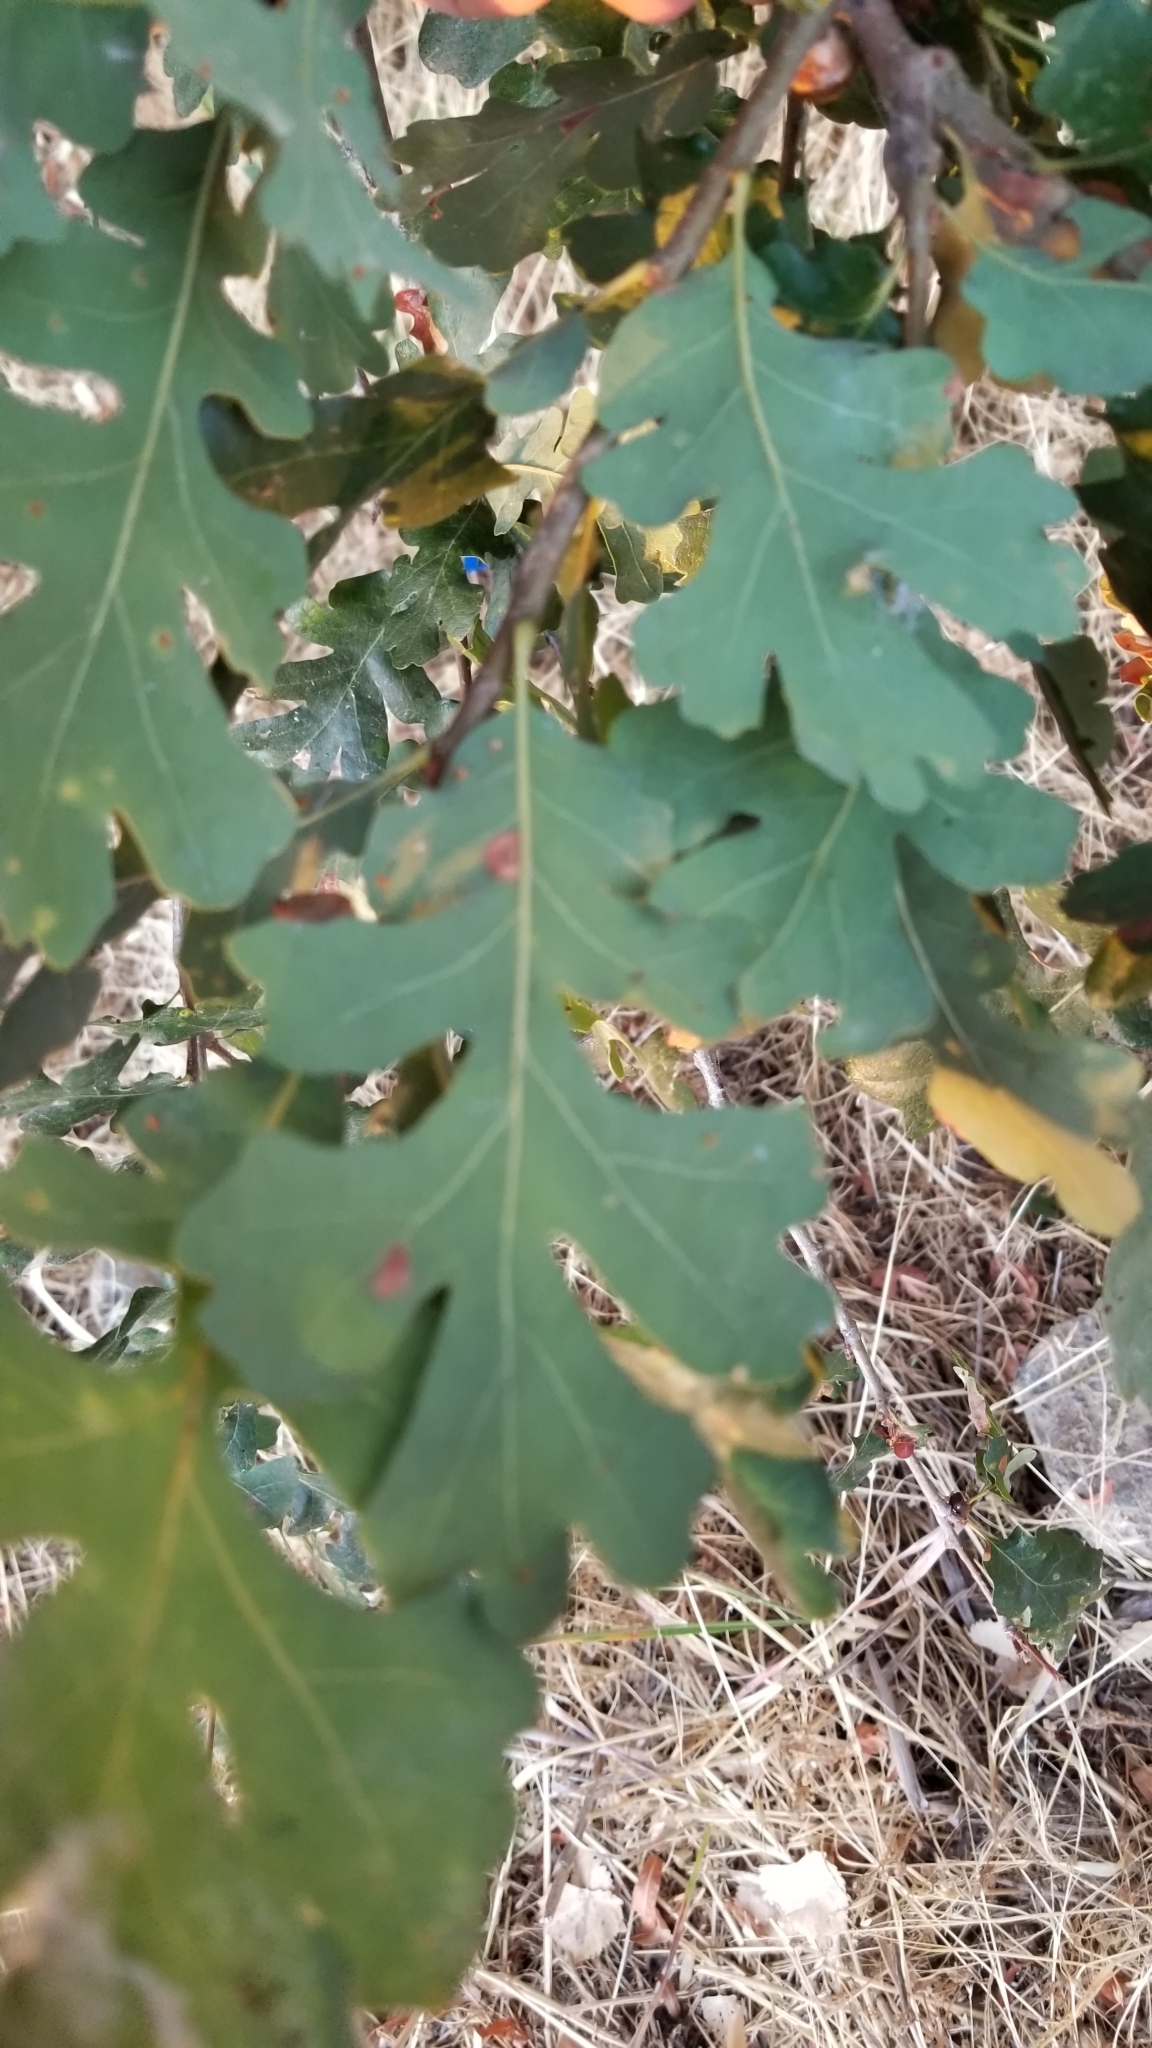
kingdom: Plantae
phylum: Tracheophyta
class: Magnoliopsida
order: Fagales
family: Fagaceae
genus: Quercus
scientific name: Quercus lobata
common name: Valley oak
